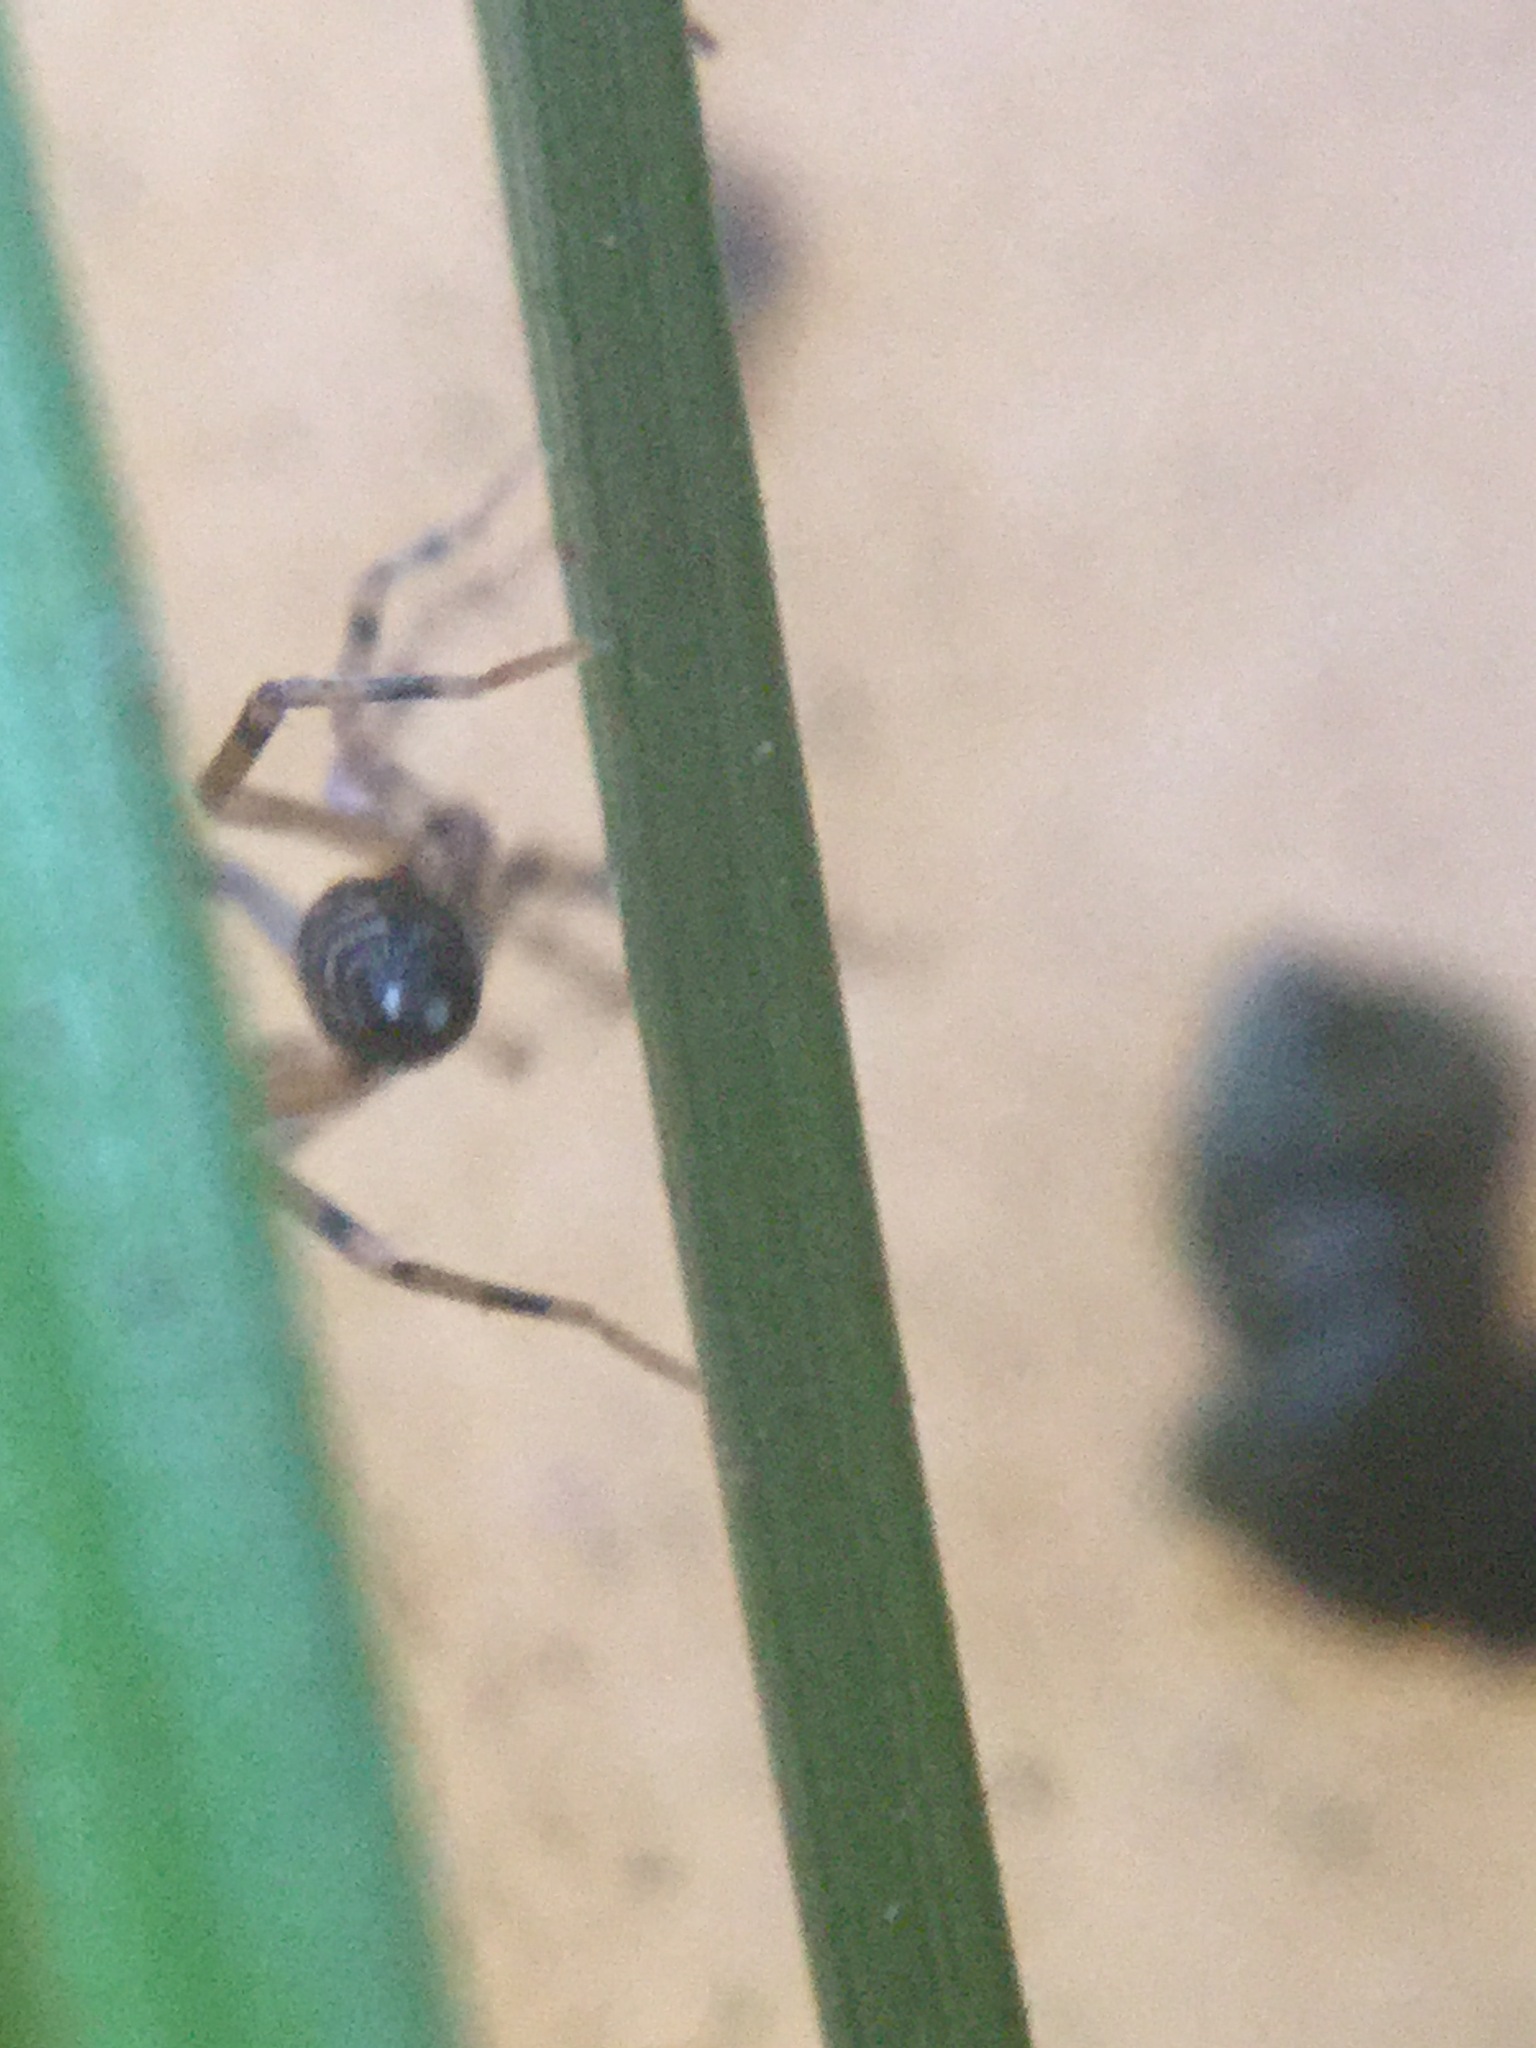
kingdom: Animalia
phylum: Arthropoda
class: Arachnida
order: Araneae
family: Phrurolithidae
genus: Phrurotimpus
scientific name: Phrurotimpus borealis
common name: Greater ant-mimic corinne spider
